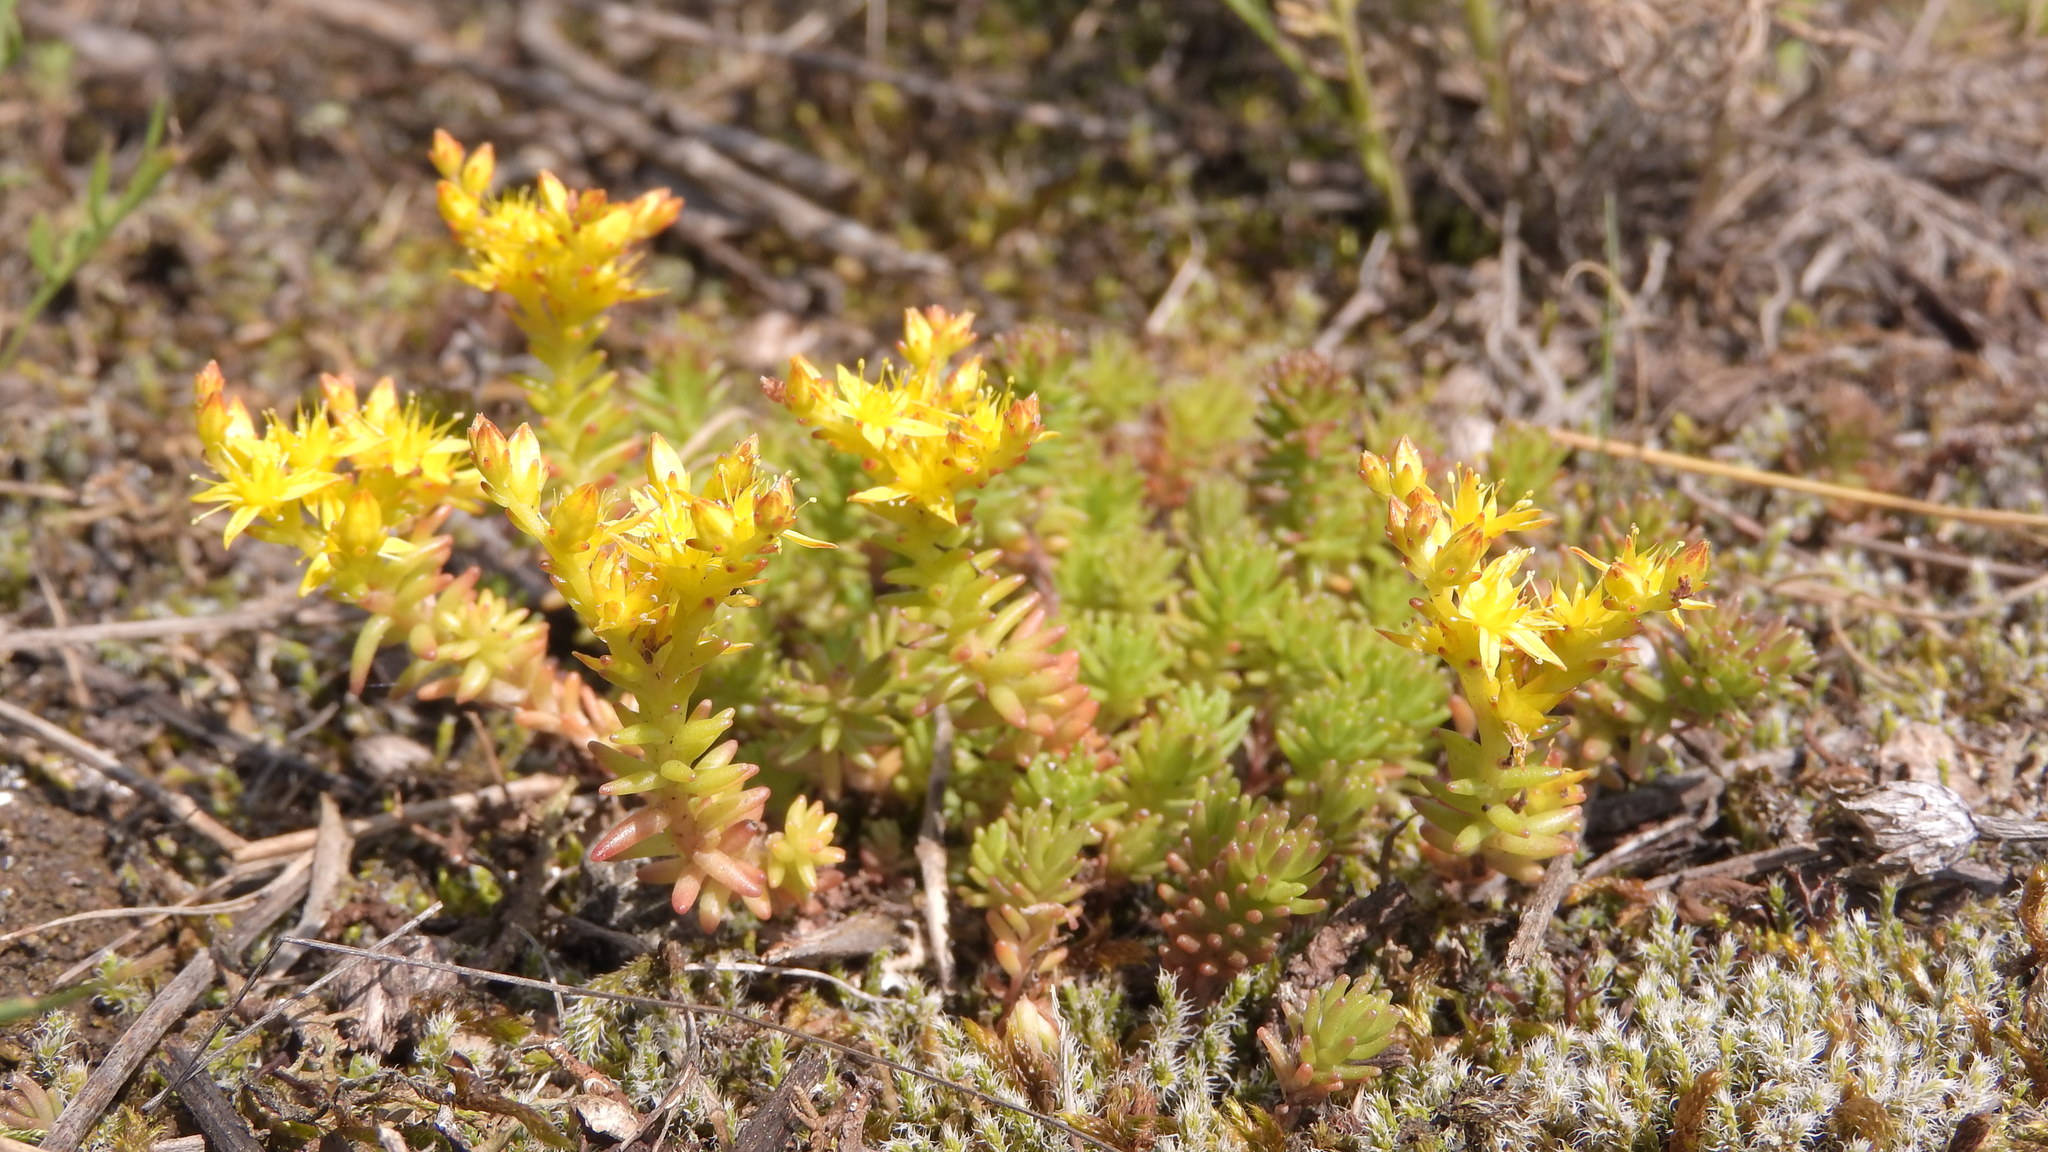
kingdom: Plantae
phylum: Tracheophyta
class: Magnoliopsida
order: Saxifragales
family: Crassulaceae
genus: Sedum
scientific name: Sedum sexangulare
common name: Tasteless stonecrop
